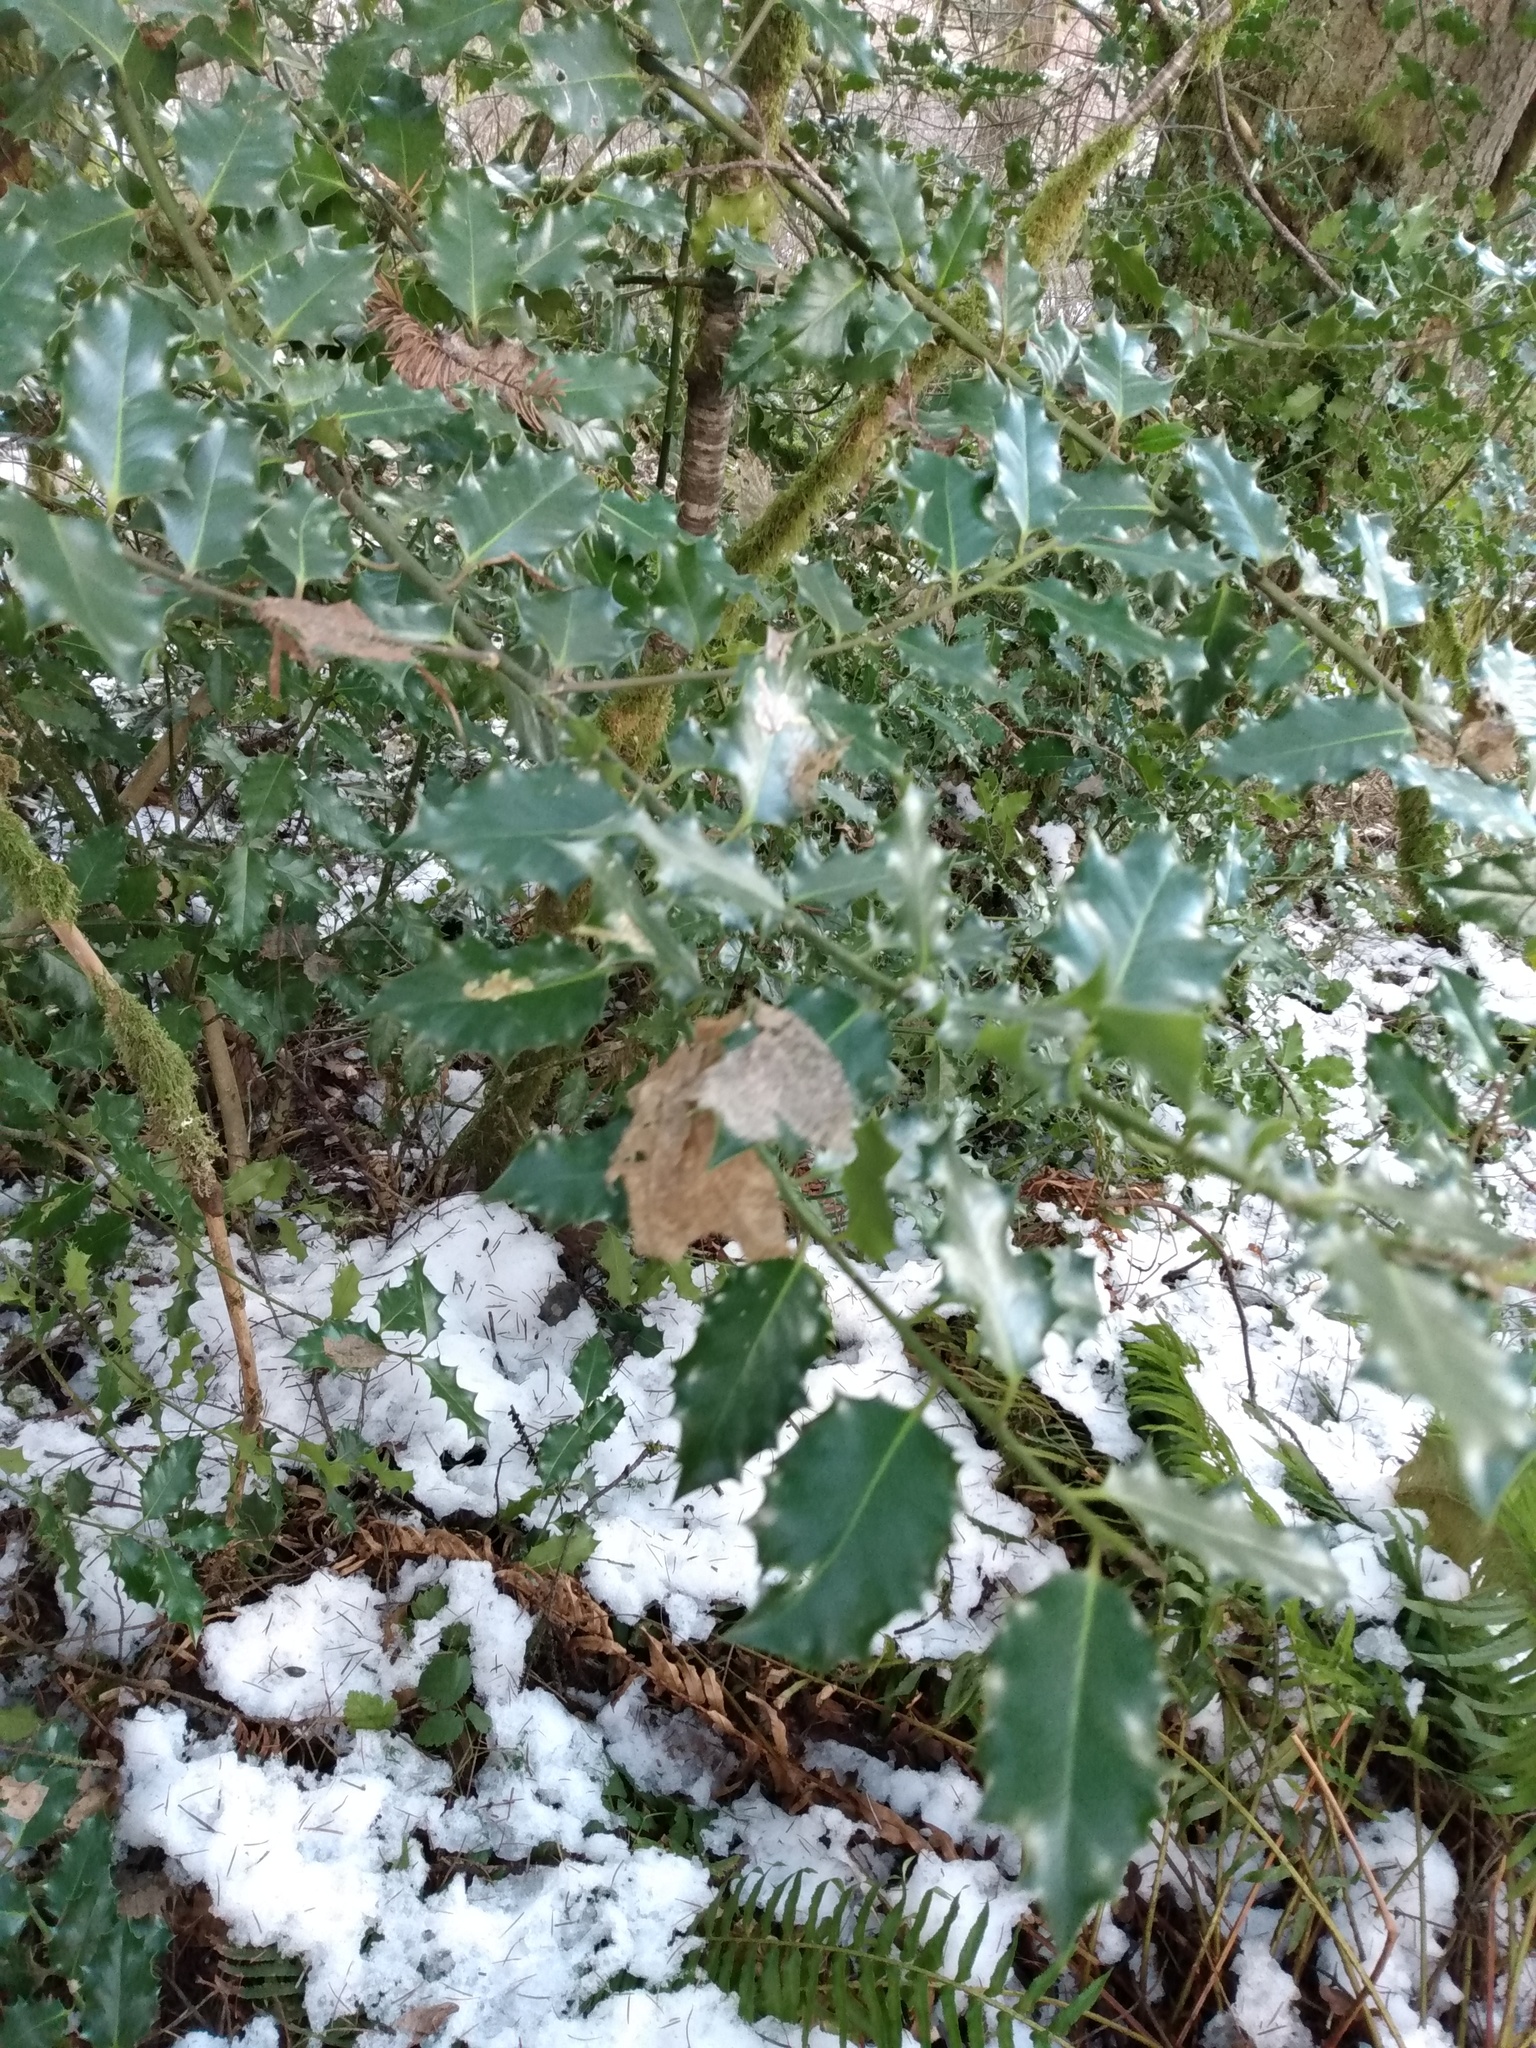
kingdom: Plantae
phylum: Tracheophyta
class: Magnoliopsida
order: Aquifoliales
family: Aquifoliaceae
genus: Ilex
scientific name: Ilex aquifolium
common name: English holly
